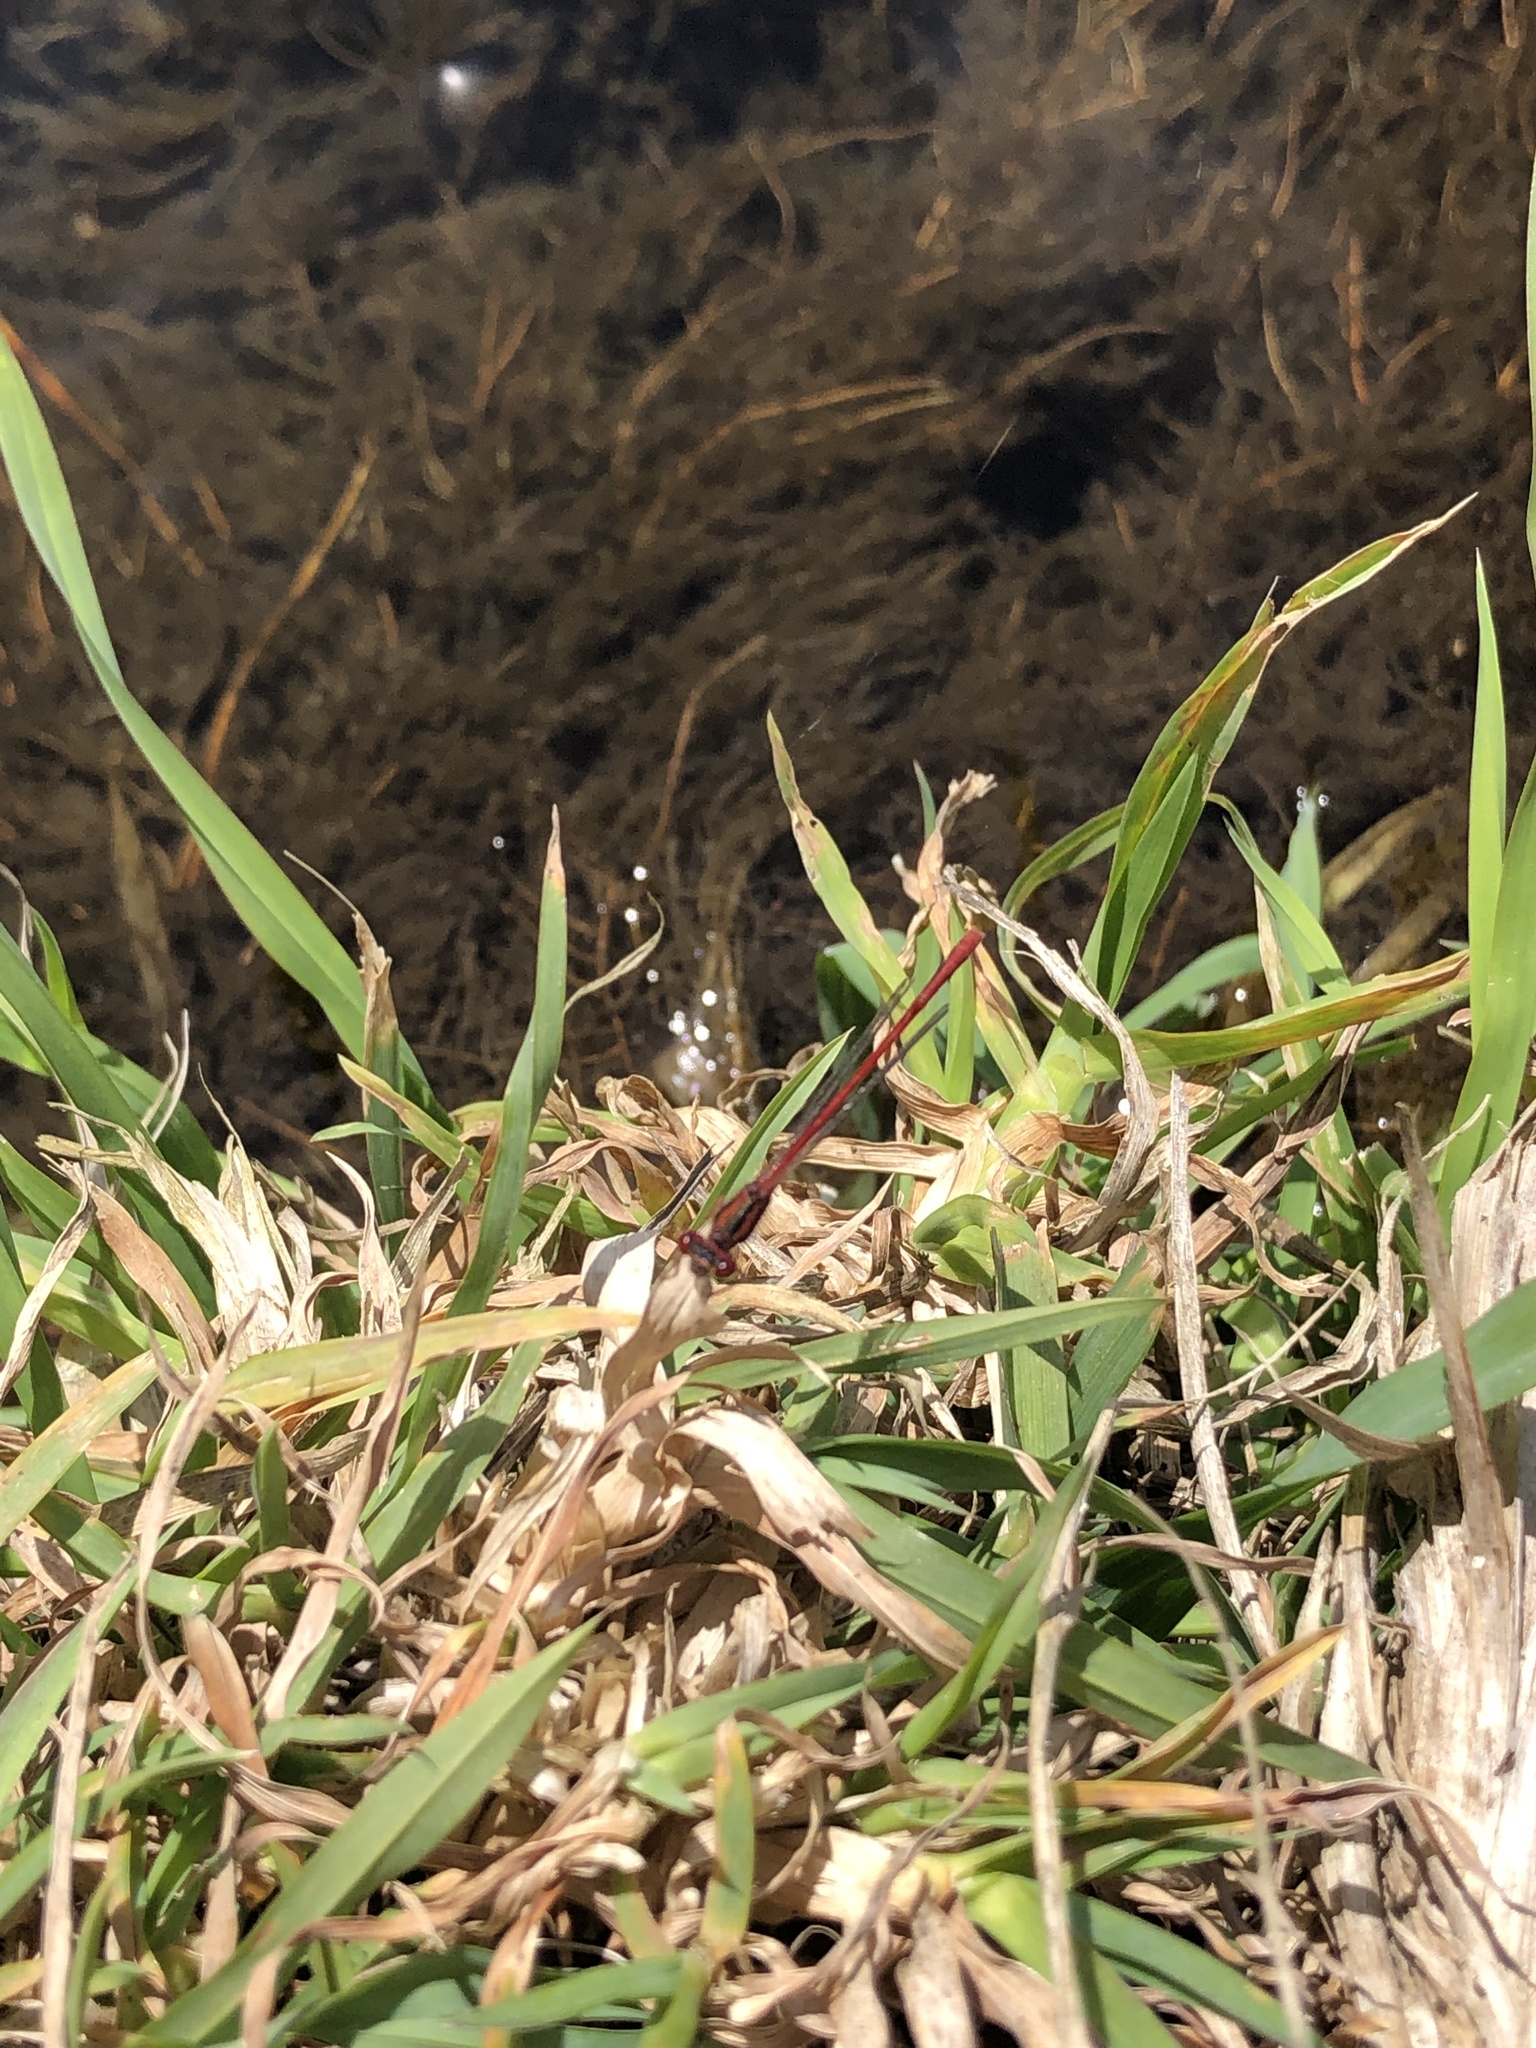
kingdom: Animalia
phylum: Arthropoda
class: Insecta
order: Odonata
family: Coenagrionidae
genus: Xanthocnemis
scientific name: Xanthocnemis zealandica
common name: Common redcoat damselfly
